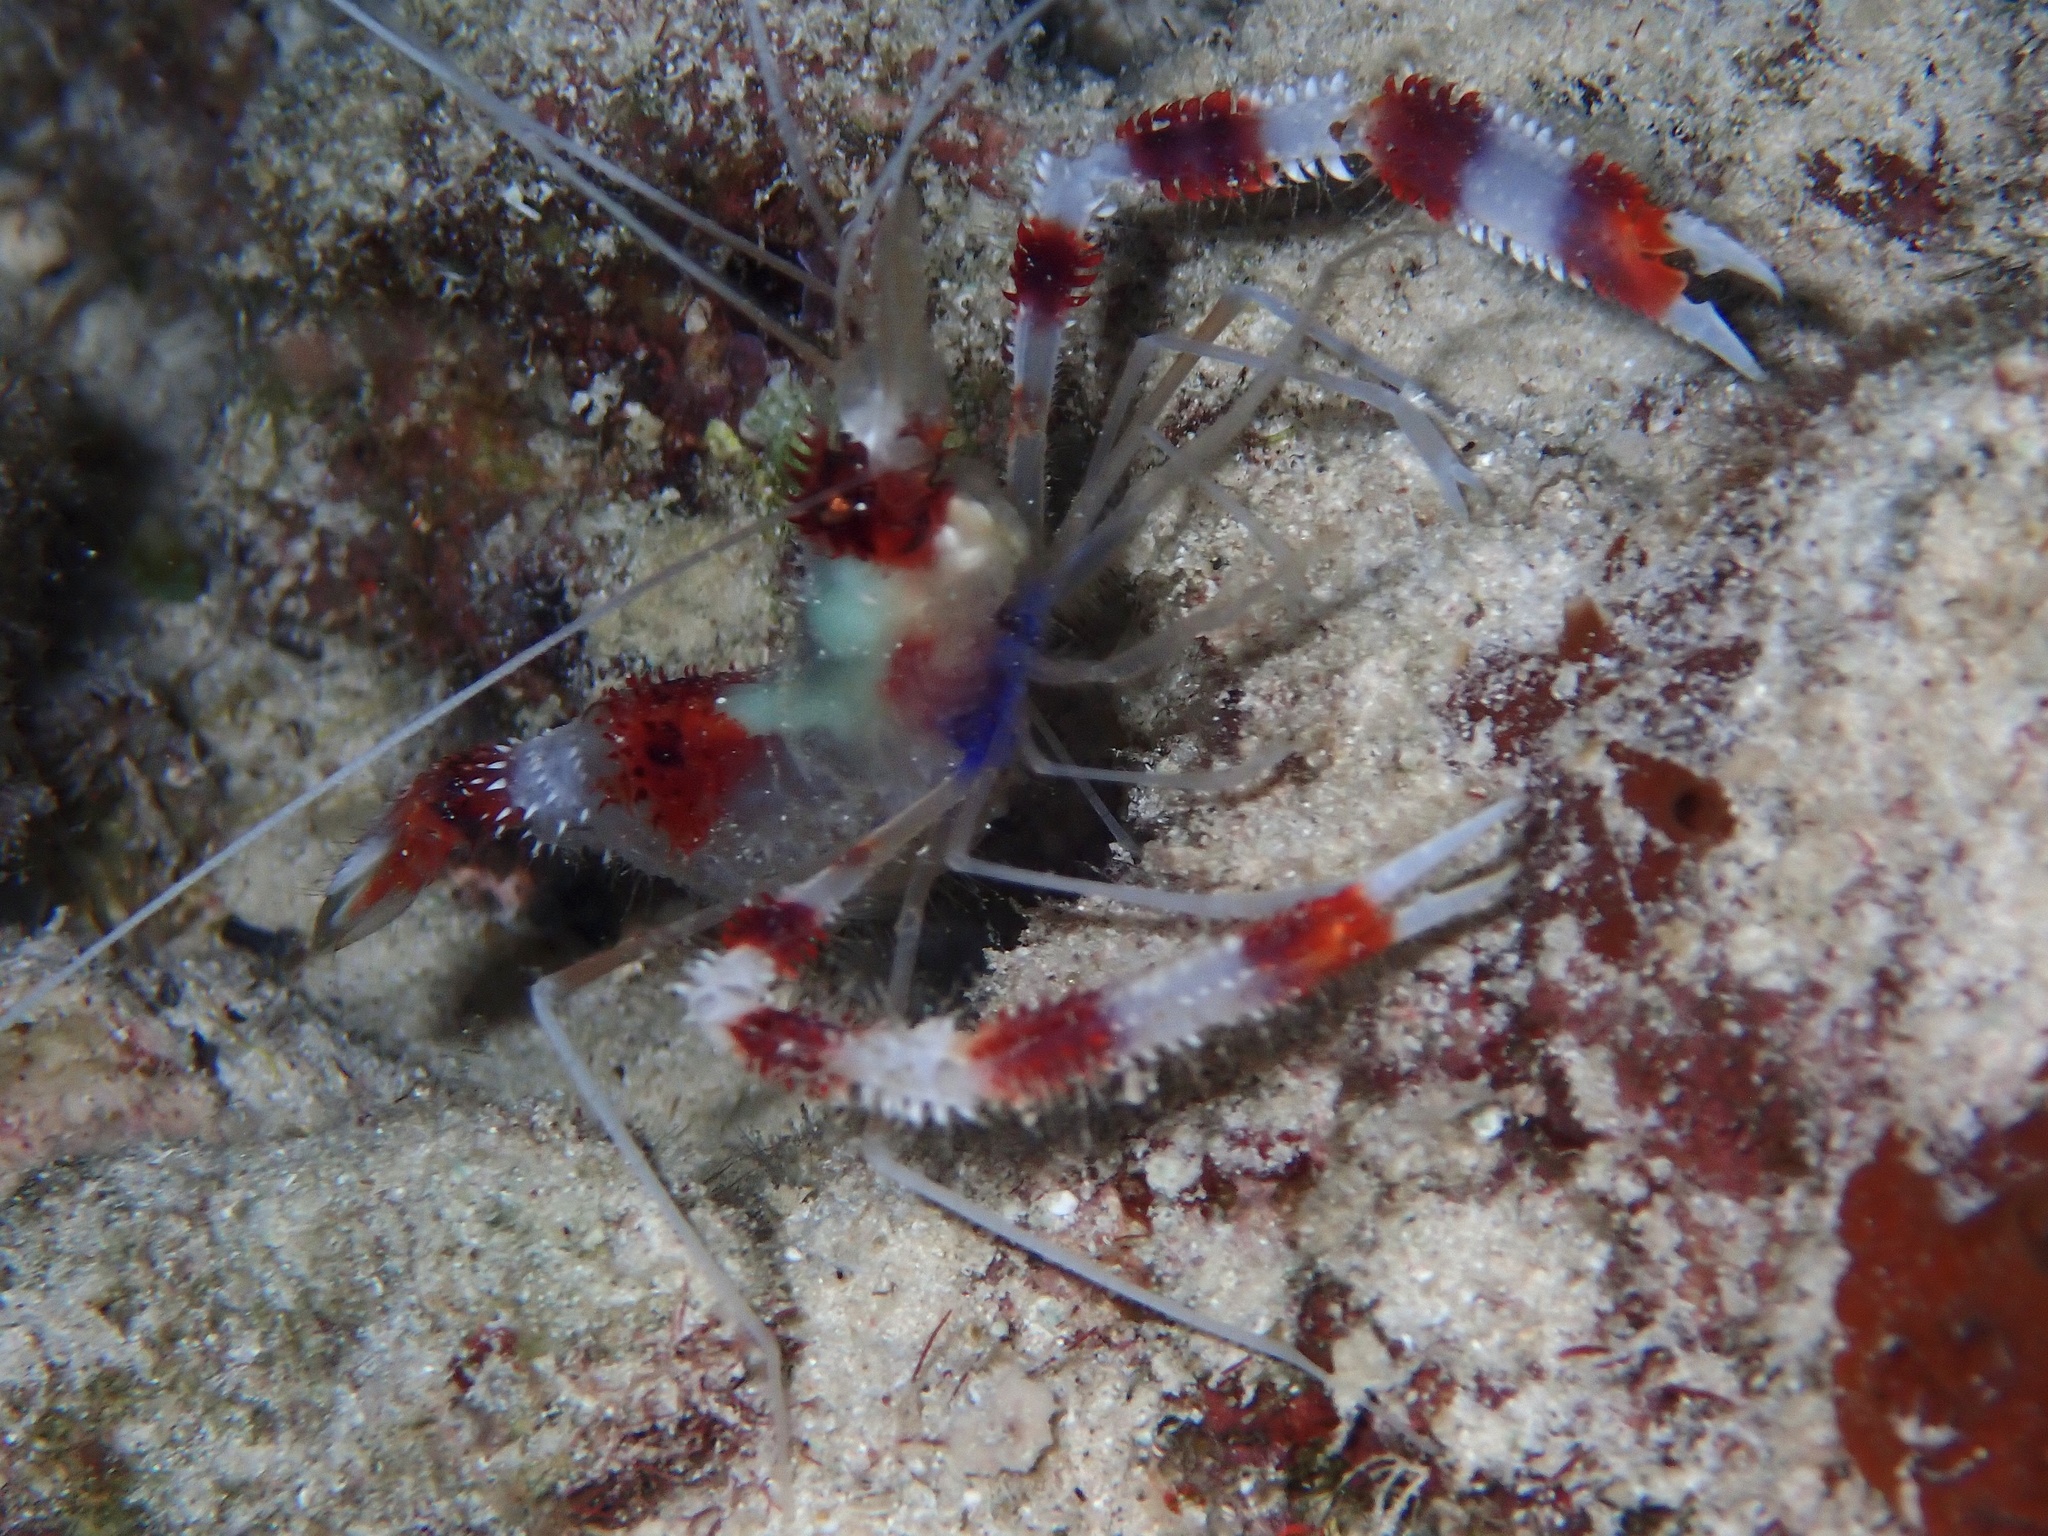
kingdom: Animalia
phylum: Arthropoda
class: Malacostraca
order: Decapoda
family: Stenopodidae
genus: Stenopus
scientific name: Stenopus hispidus
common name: Banded coral shrimp
